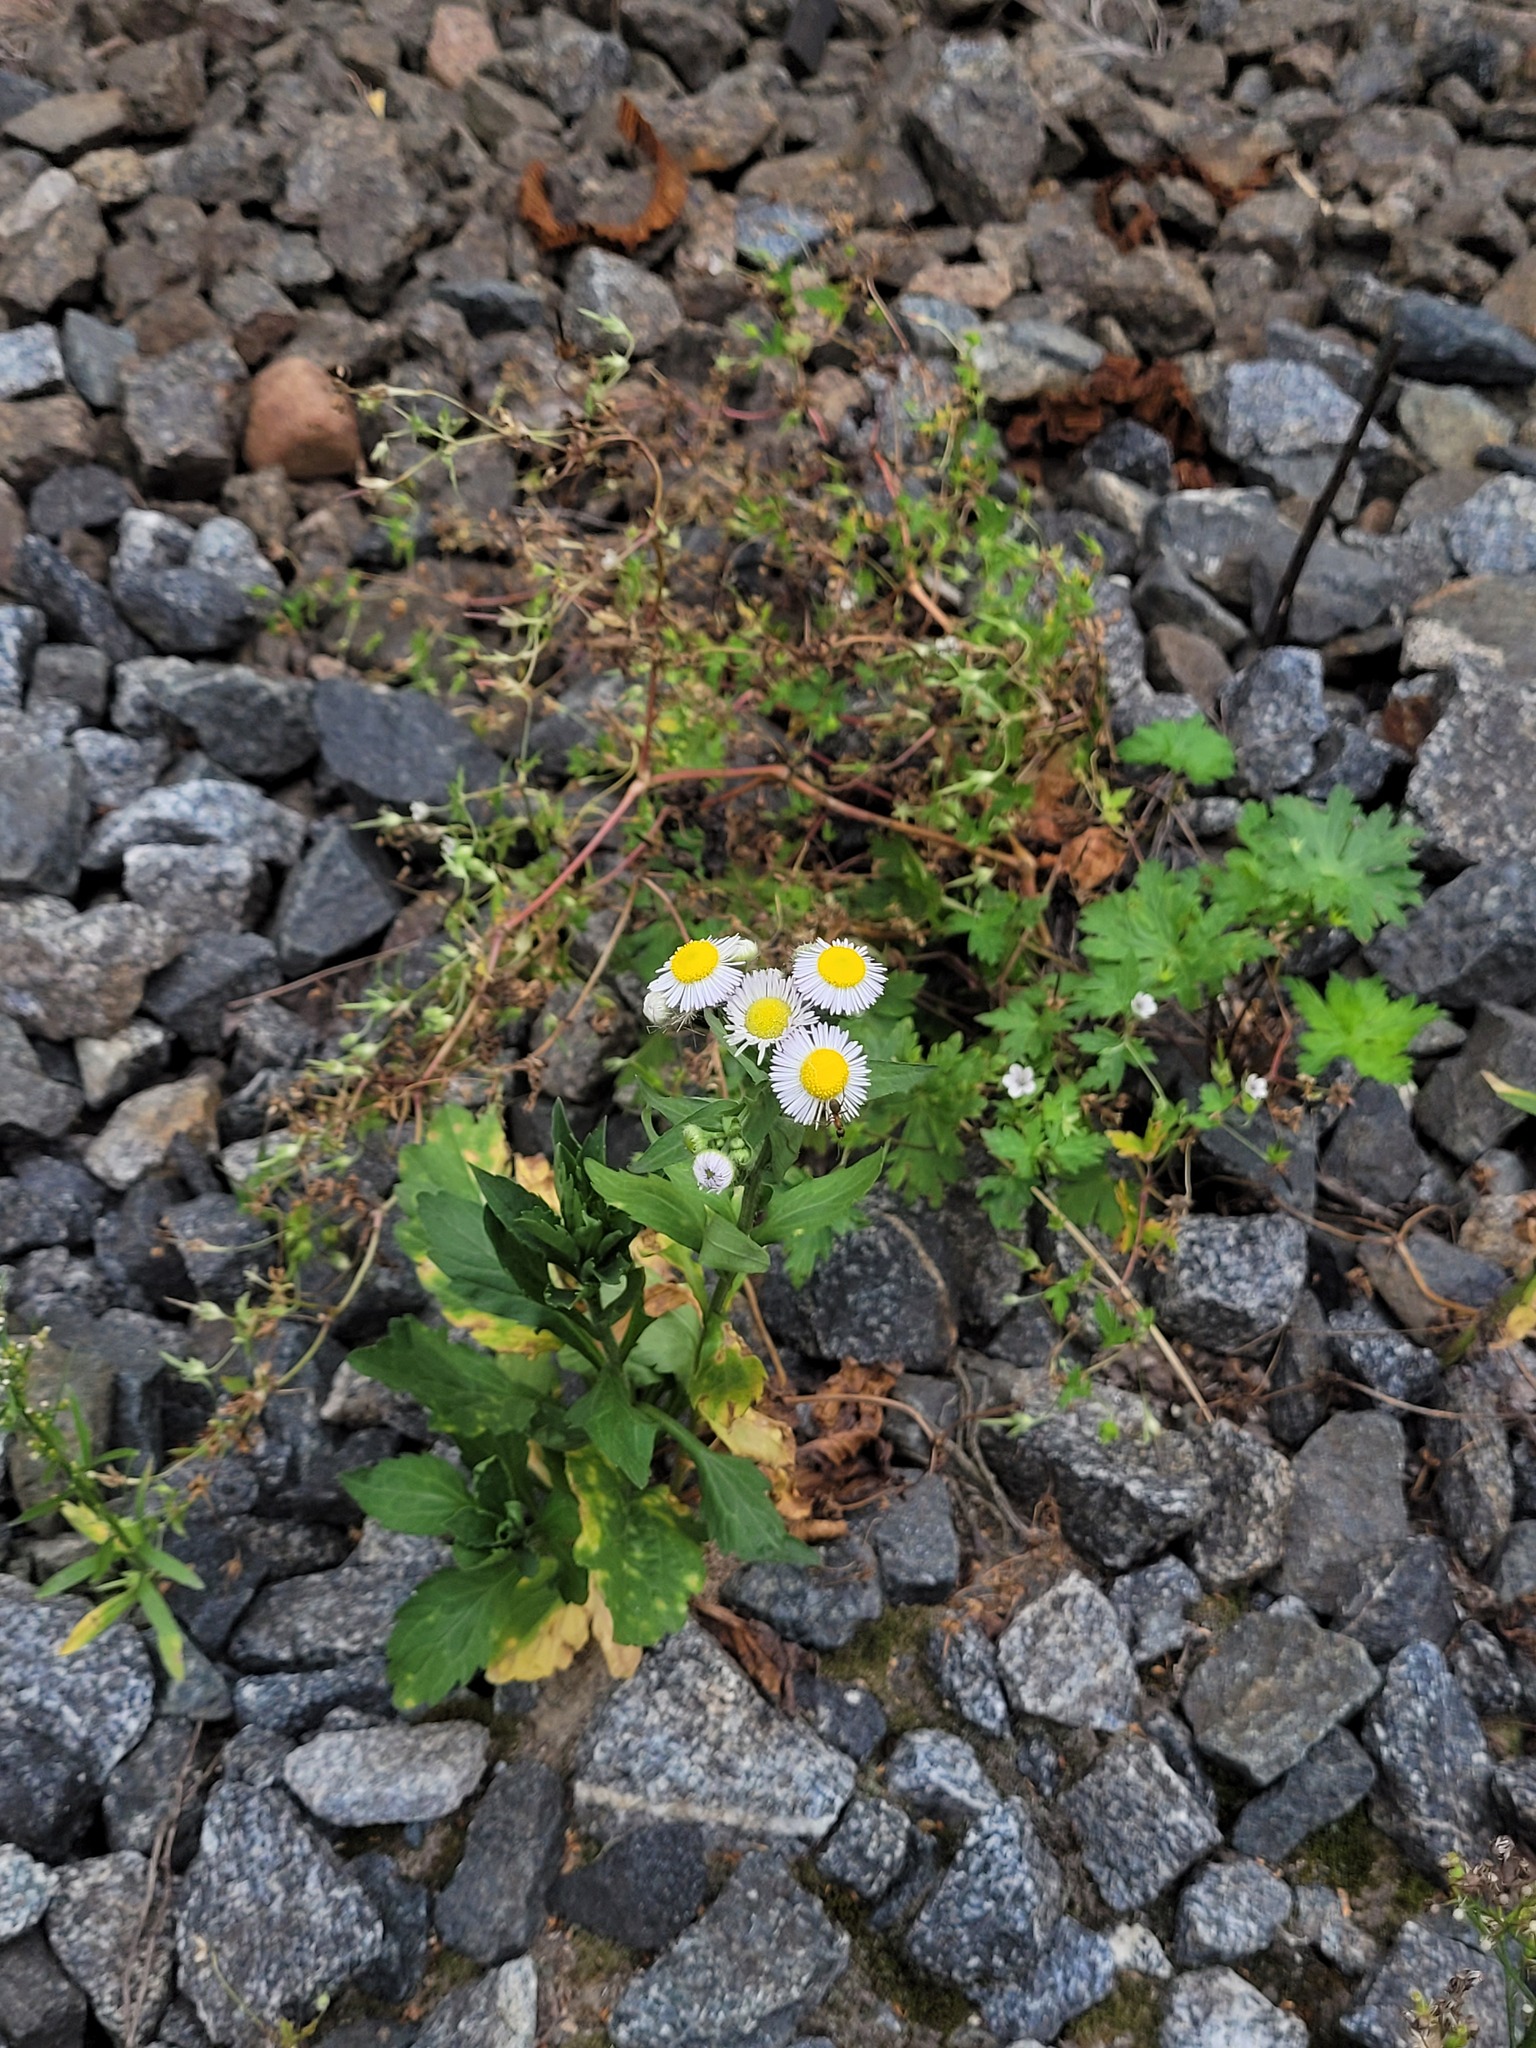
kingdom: Plantae
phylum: Tracheophyta
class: Magnoliopsida
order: Asterales
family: Asteraceae
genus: Erigeron
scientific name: Erigeron annuus
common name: Tall fleabane
